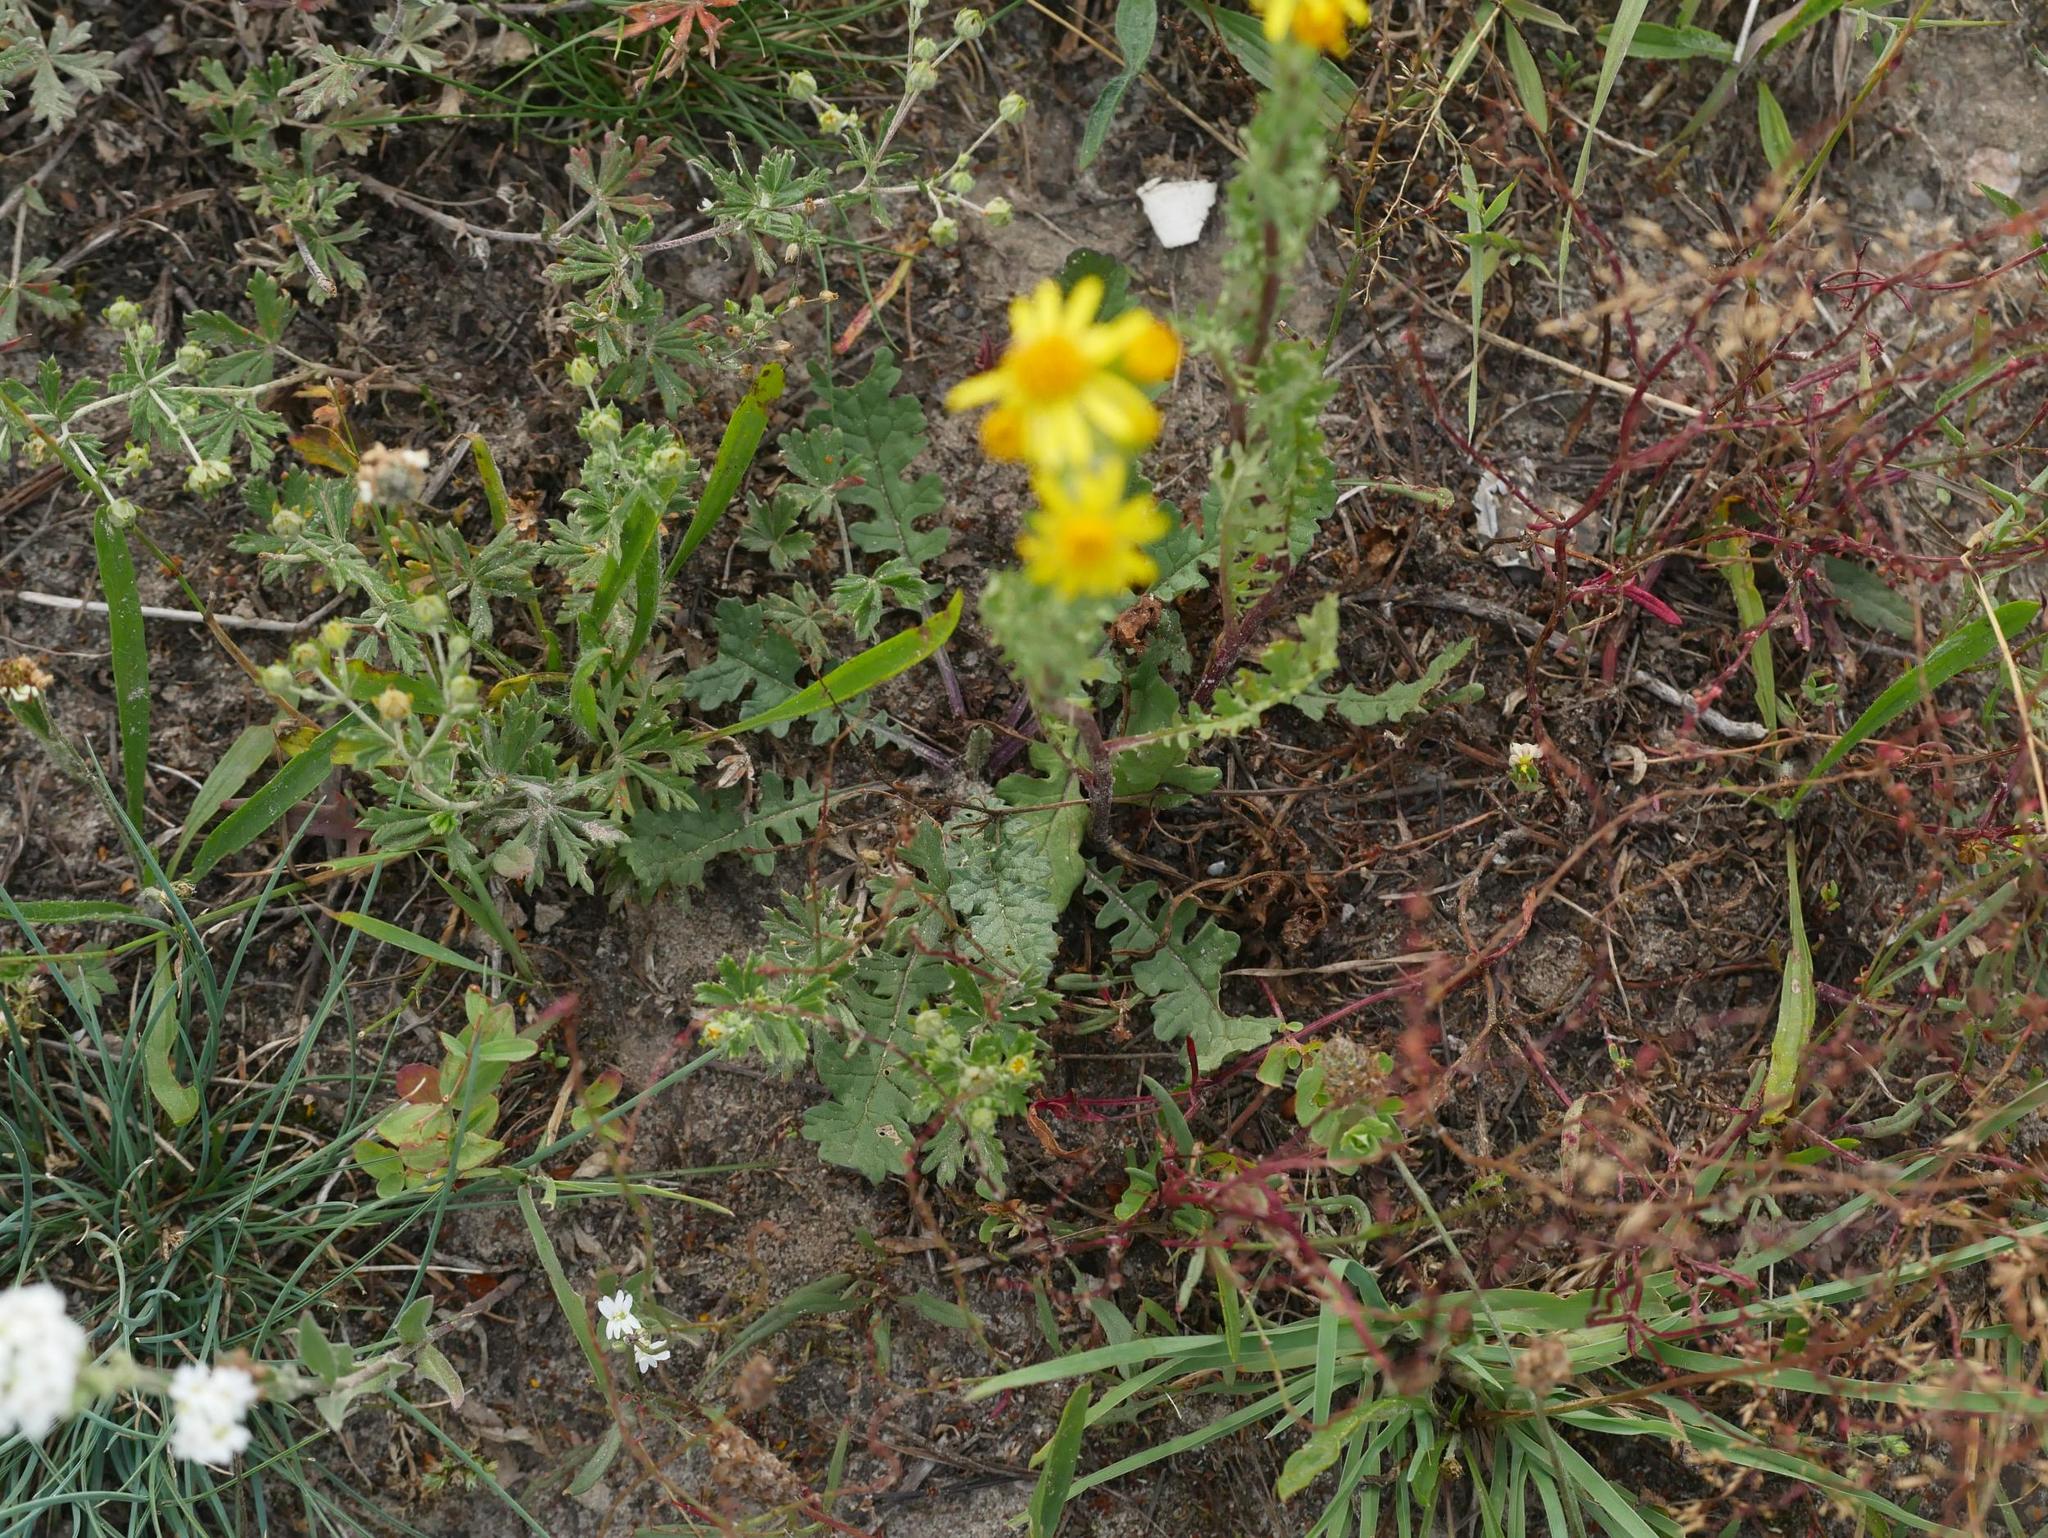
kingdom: Plantae
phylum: Tracheophyta
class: Magnoliopsida
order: Asterales
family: Asteraceae
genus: Jacobaea
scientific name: Jacobaea vulgaris
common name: Stinking willie
